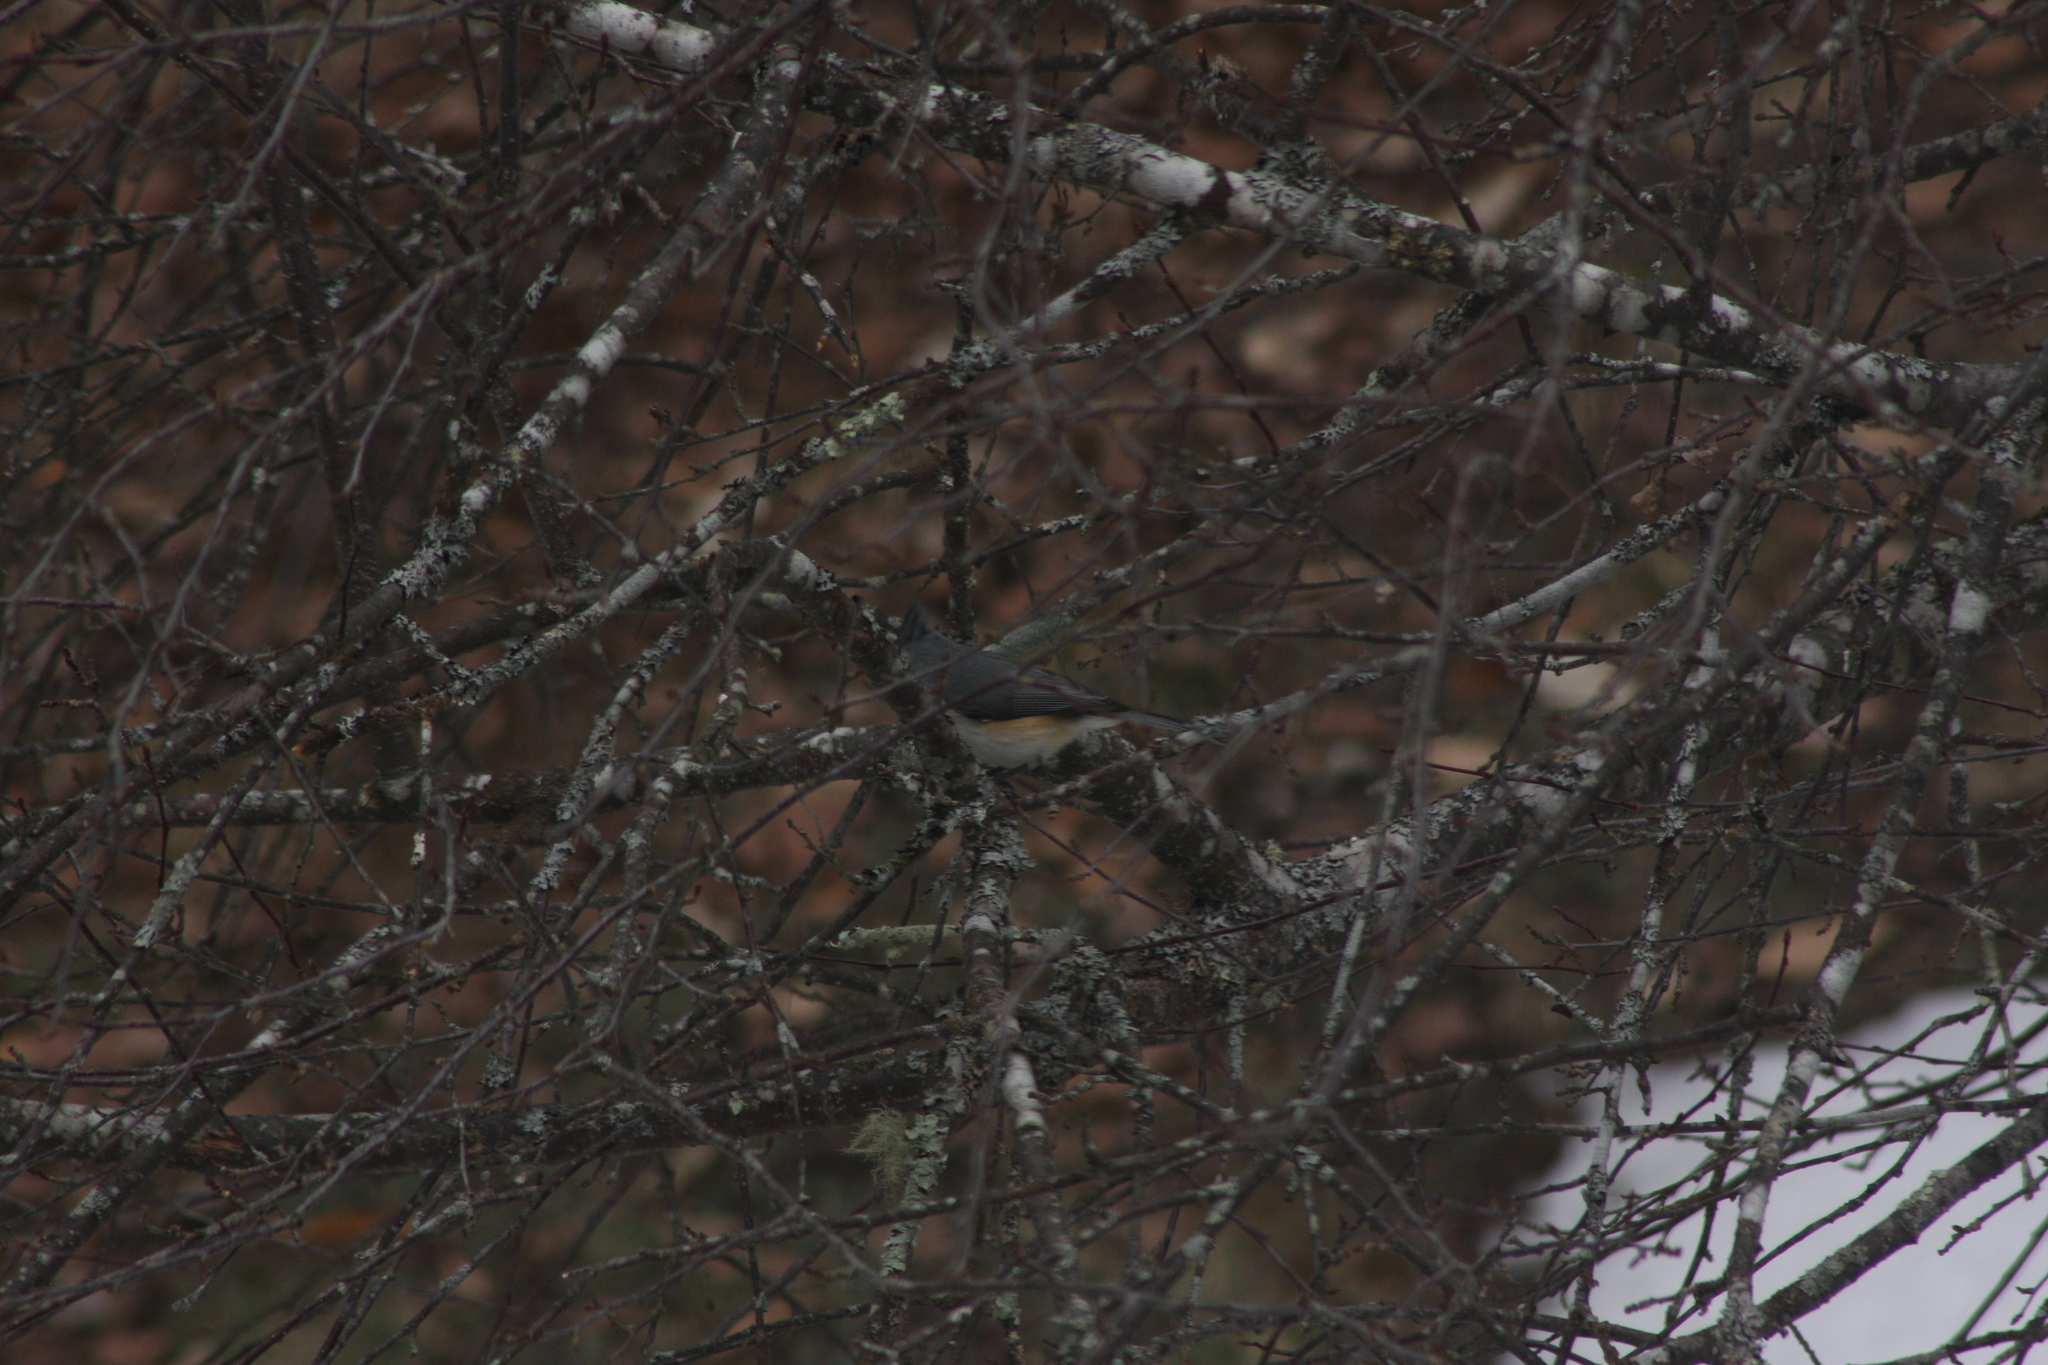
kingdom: Animalia
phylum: Chordata
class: Aves
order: Passeriformes
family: Paridae
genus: Baeolophus
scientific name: Baeolophus bicolor
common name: Tufted titmouse
